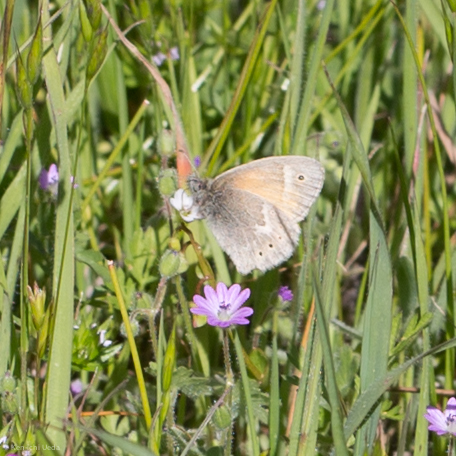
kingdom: Animalia
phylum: Arthropoda
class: Insecta
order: Lepidoptera
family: Nymphalidae
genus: Coenonympha
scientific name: Coenonympha california
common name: Common ringlet
